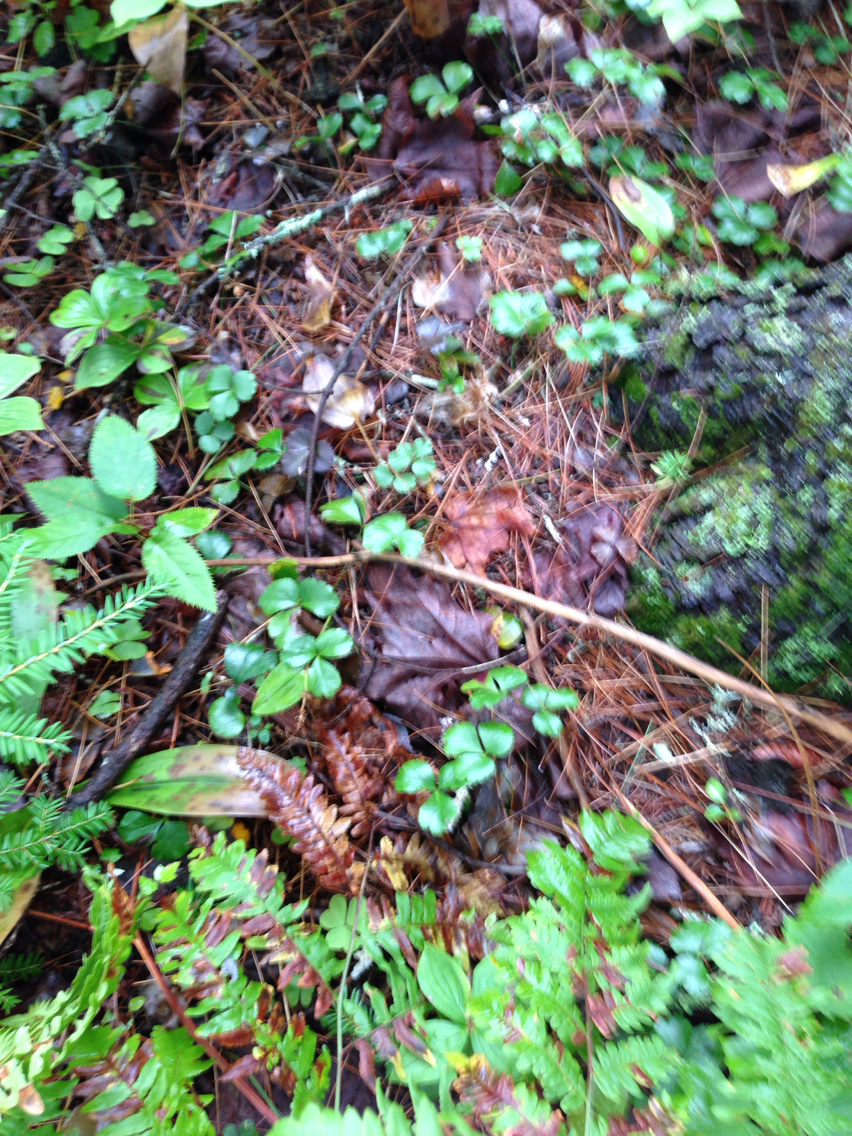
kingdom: Plantae
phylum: Tracheophyta
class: Magnoliopsida
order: Ranunculales
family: Ranunculaceae
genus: Coptis
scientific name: Coptis trifolia
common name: Canker-root
